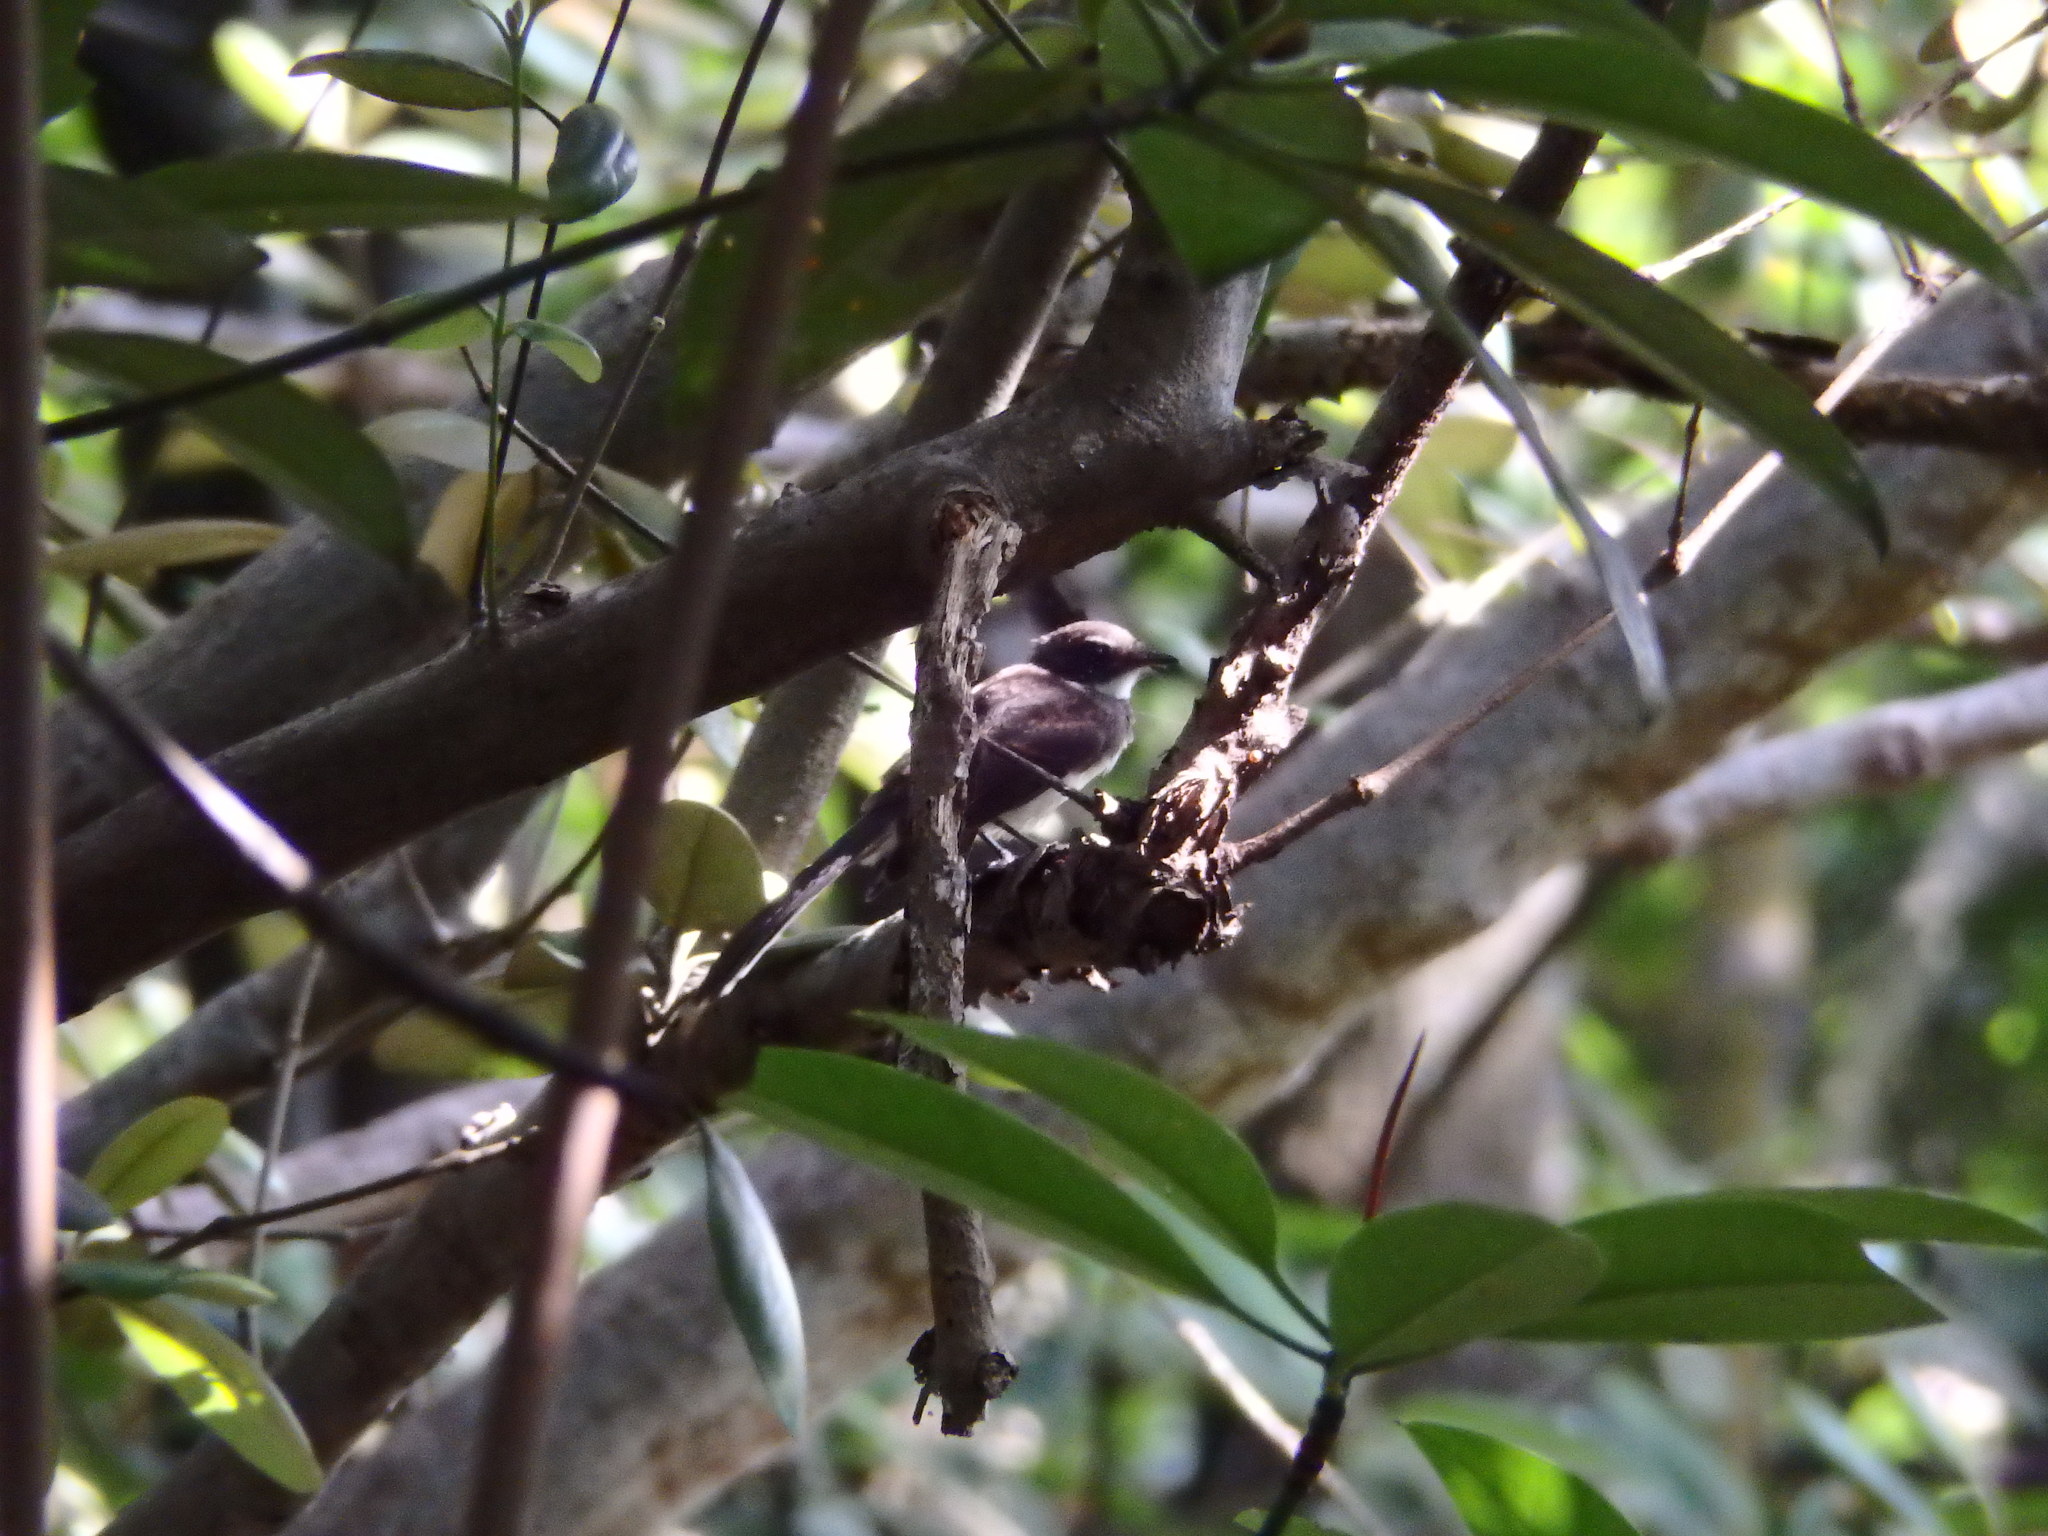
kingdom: Animalia
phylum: Chordata
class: Aves
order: Passeriformes
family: Rhipiduridae
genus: Rhipidura
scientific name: Rhipidura javanica
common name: Pied fantail
